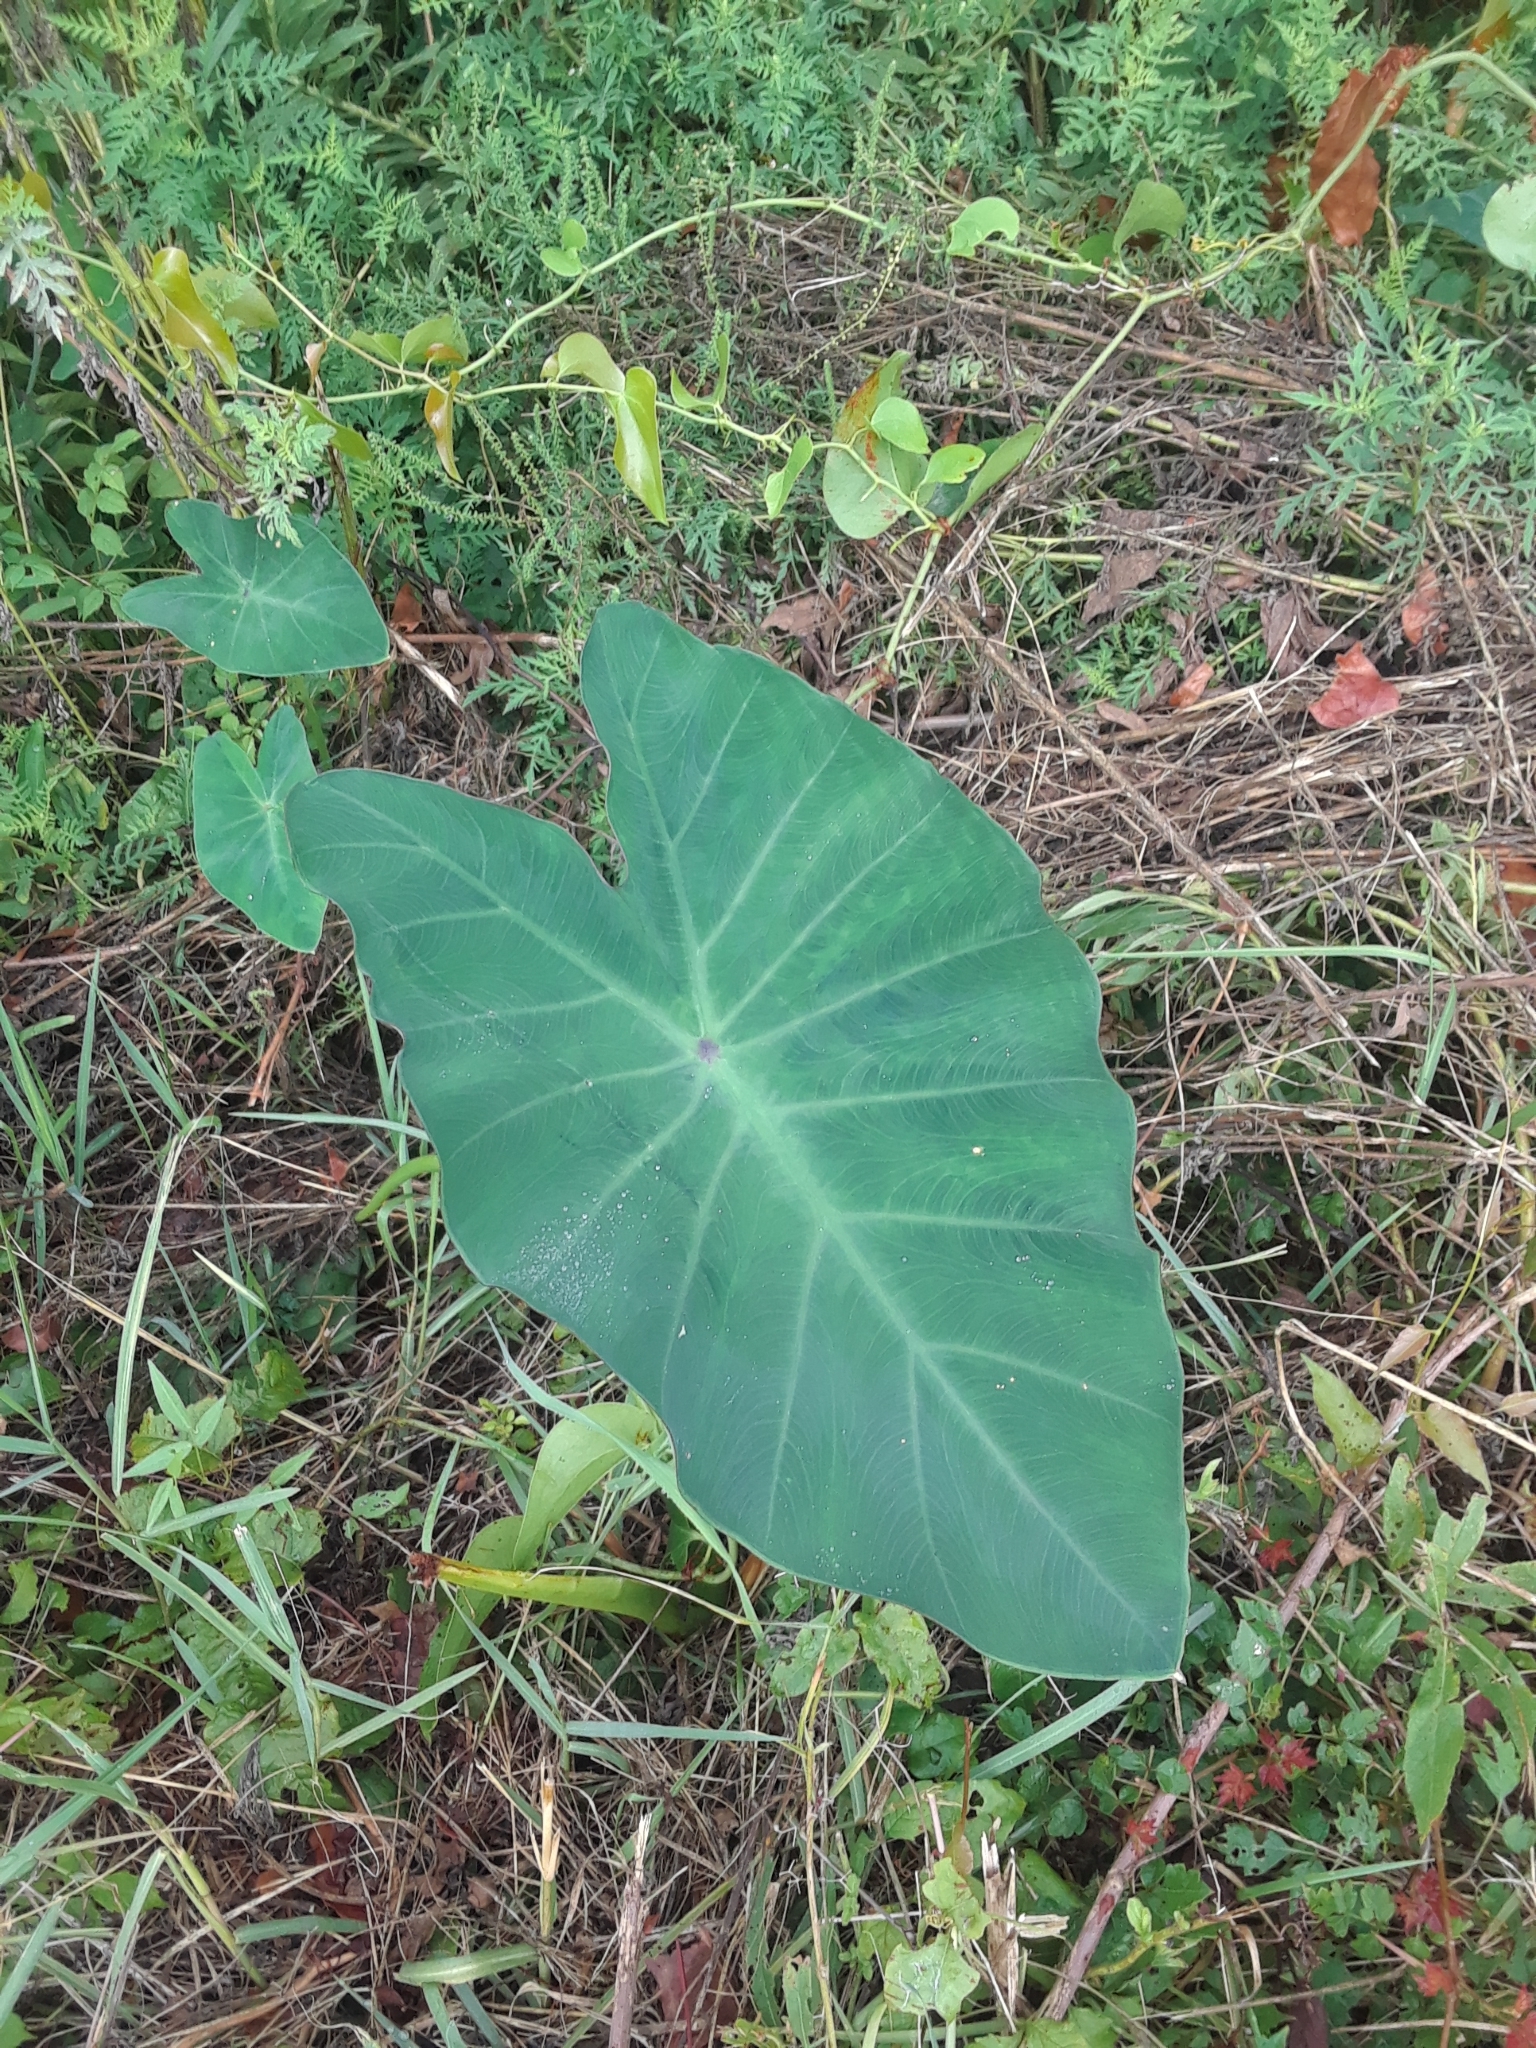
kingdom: Plantae
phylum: Tracheophyta
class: Liliopsida
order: Alismatales
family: Araceae
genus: Colocasia
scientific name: Colocasia esculenta
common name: Taro
